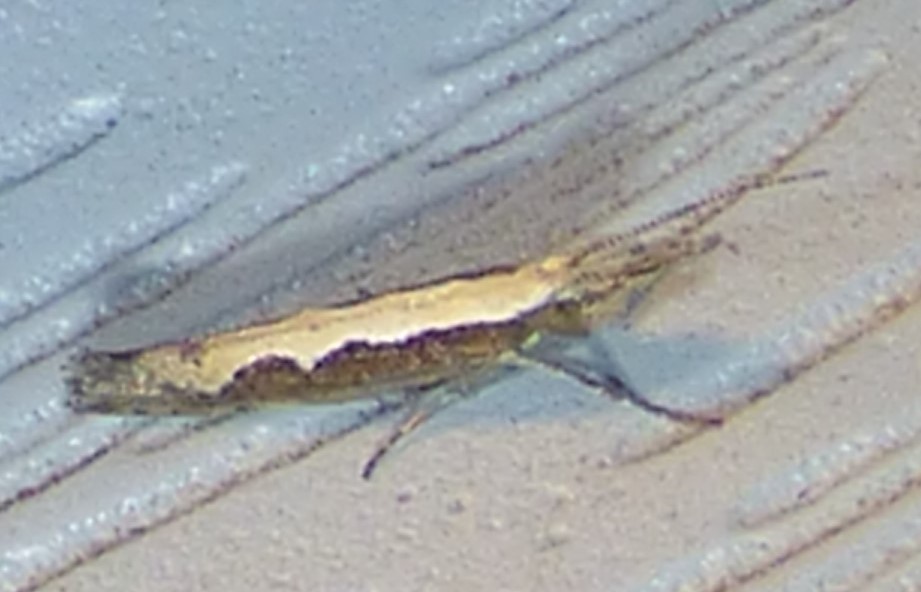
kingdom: Animalia
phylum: Arthropoda
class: Insecta
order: Lepidoptera
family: Plutellidae
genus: Plutella
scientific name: Plutella xylostella
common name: Diamond-back moth
